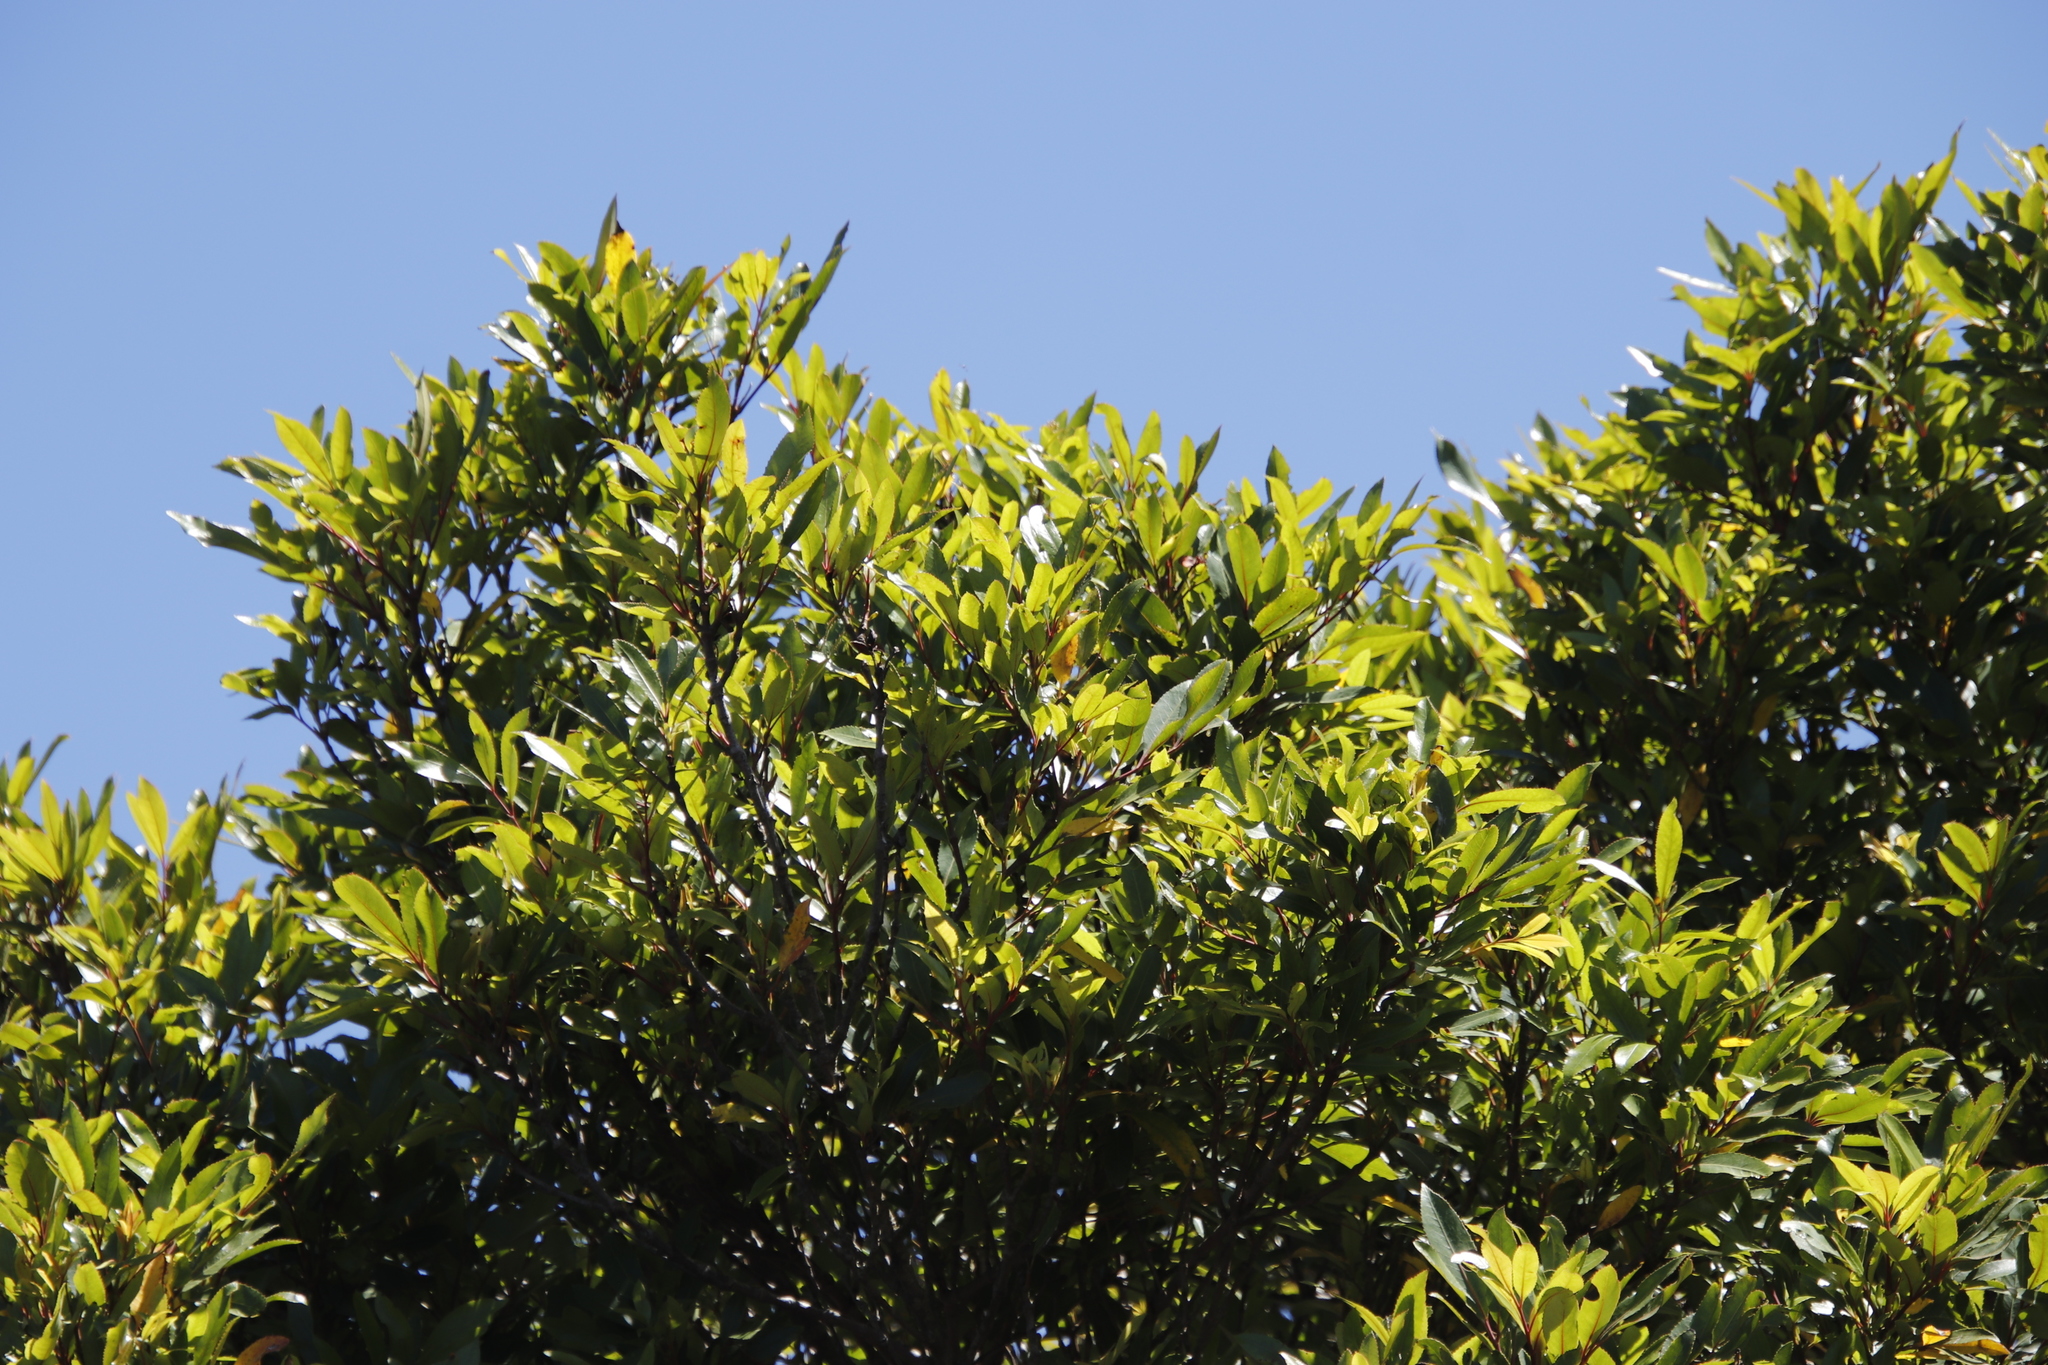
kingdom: Plantae
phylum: Tracheophyta
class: Magnoliopsida
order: Oxalidales
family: Cunoniaceae
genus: Cunonia
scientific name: Cunonia capensis
